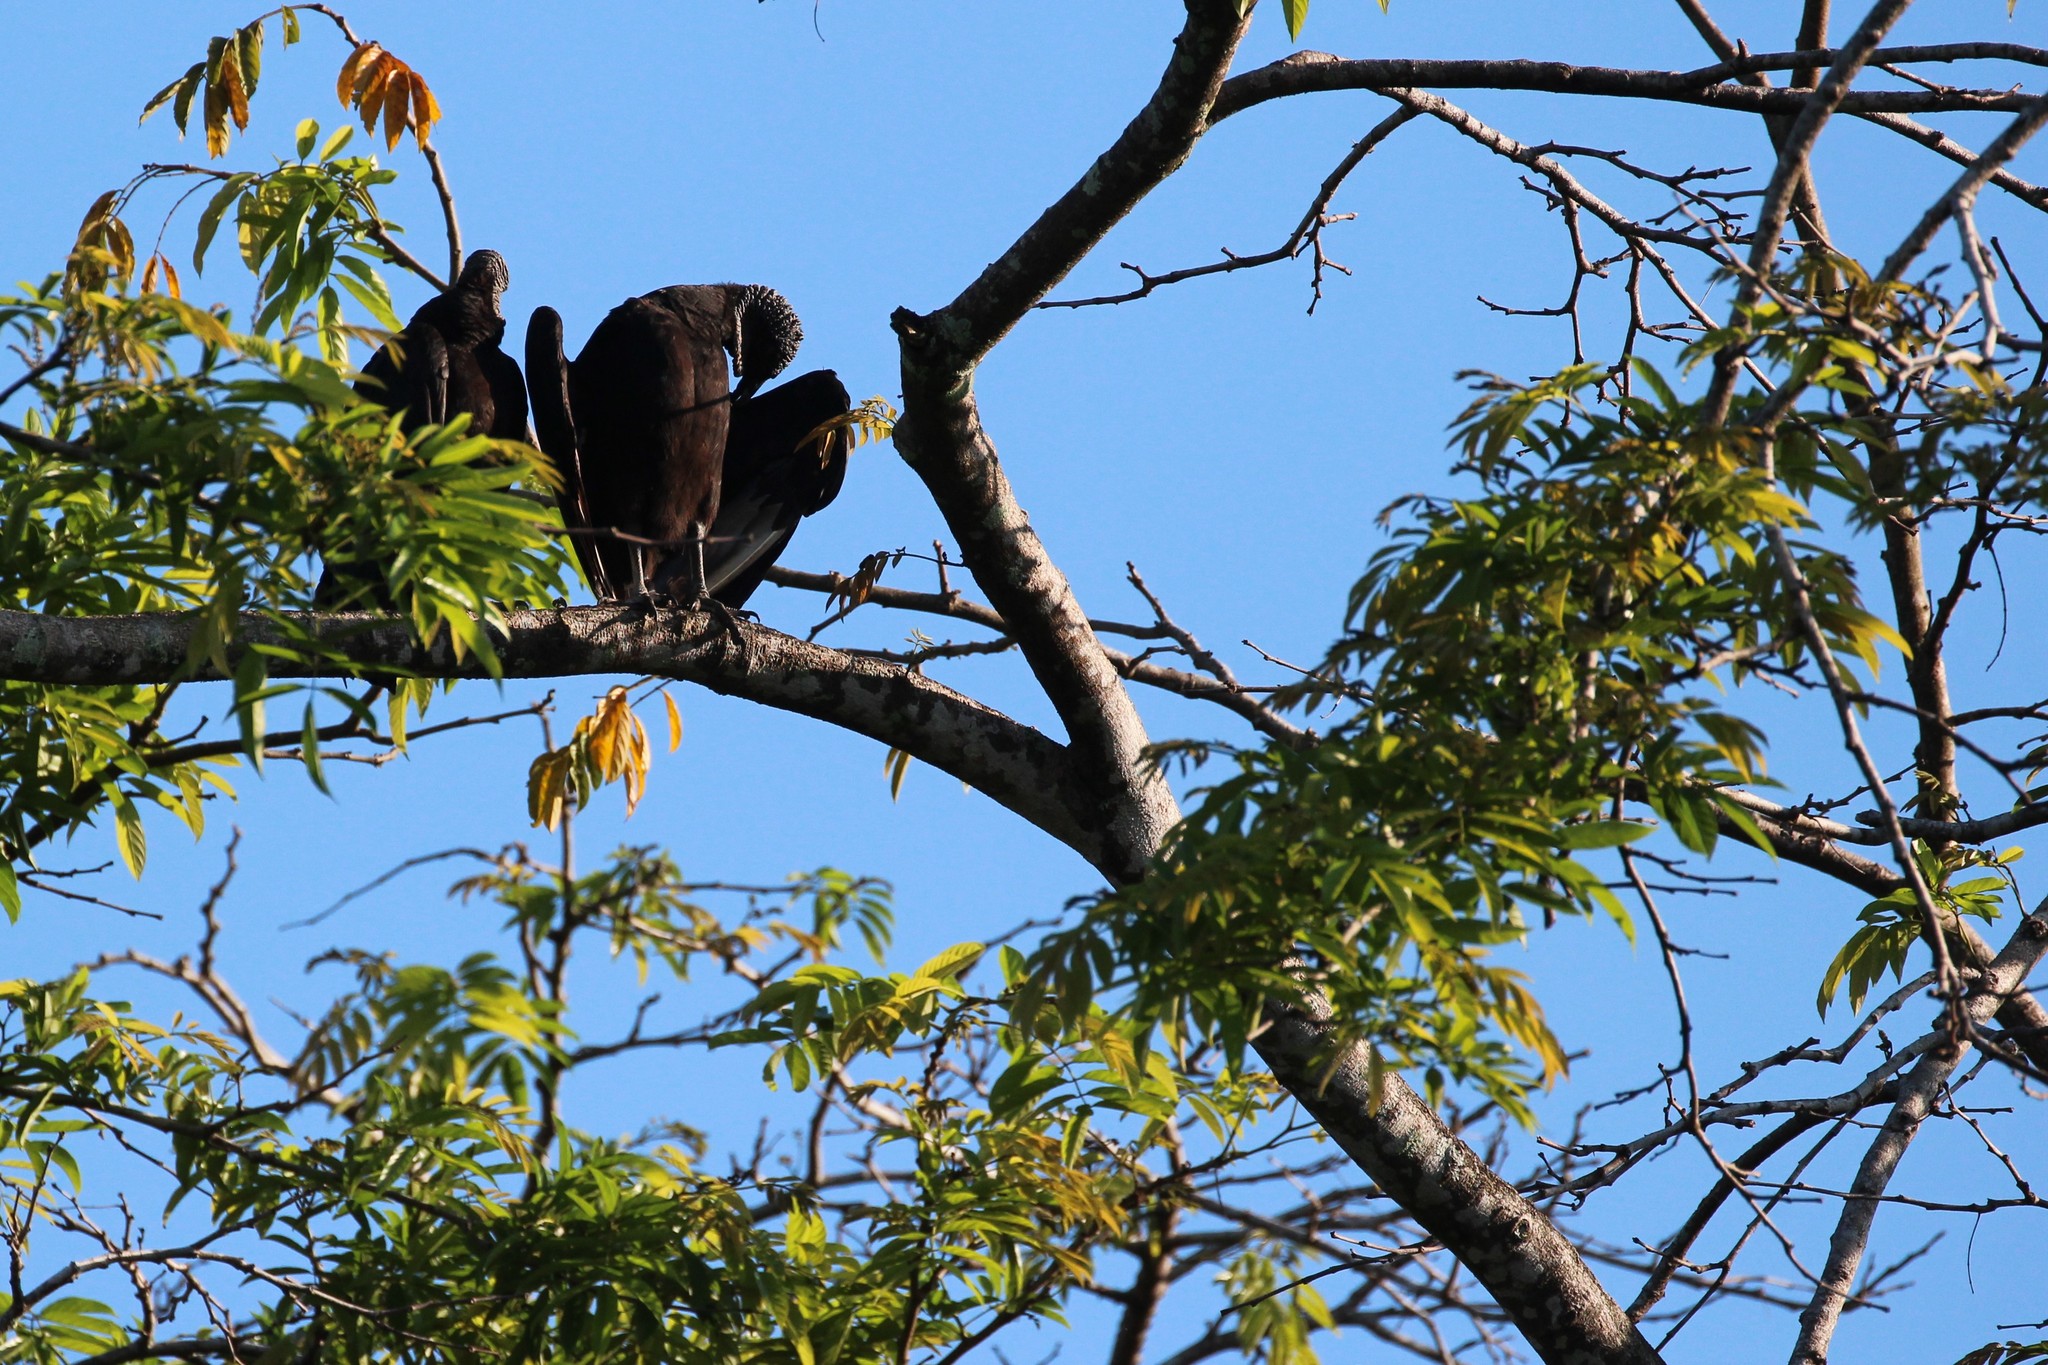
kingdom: Animalia
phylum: Chordata
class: Aves
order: Accipitriformes
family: Cathartidae
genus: Coragyps
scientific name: Coragyps atratus
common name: Black vulture
